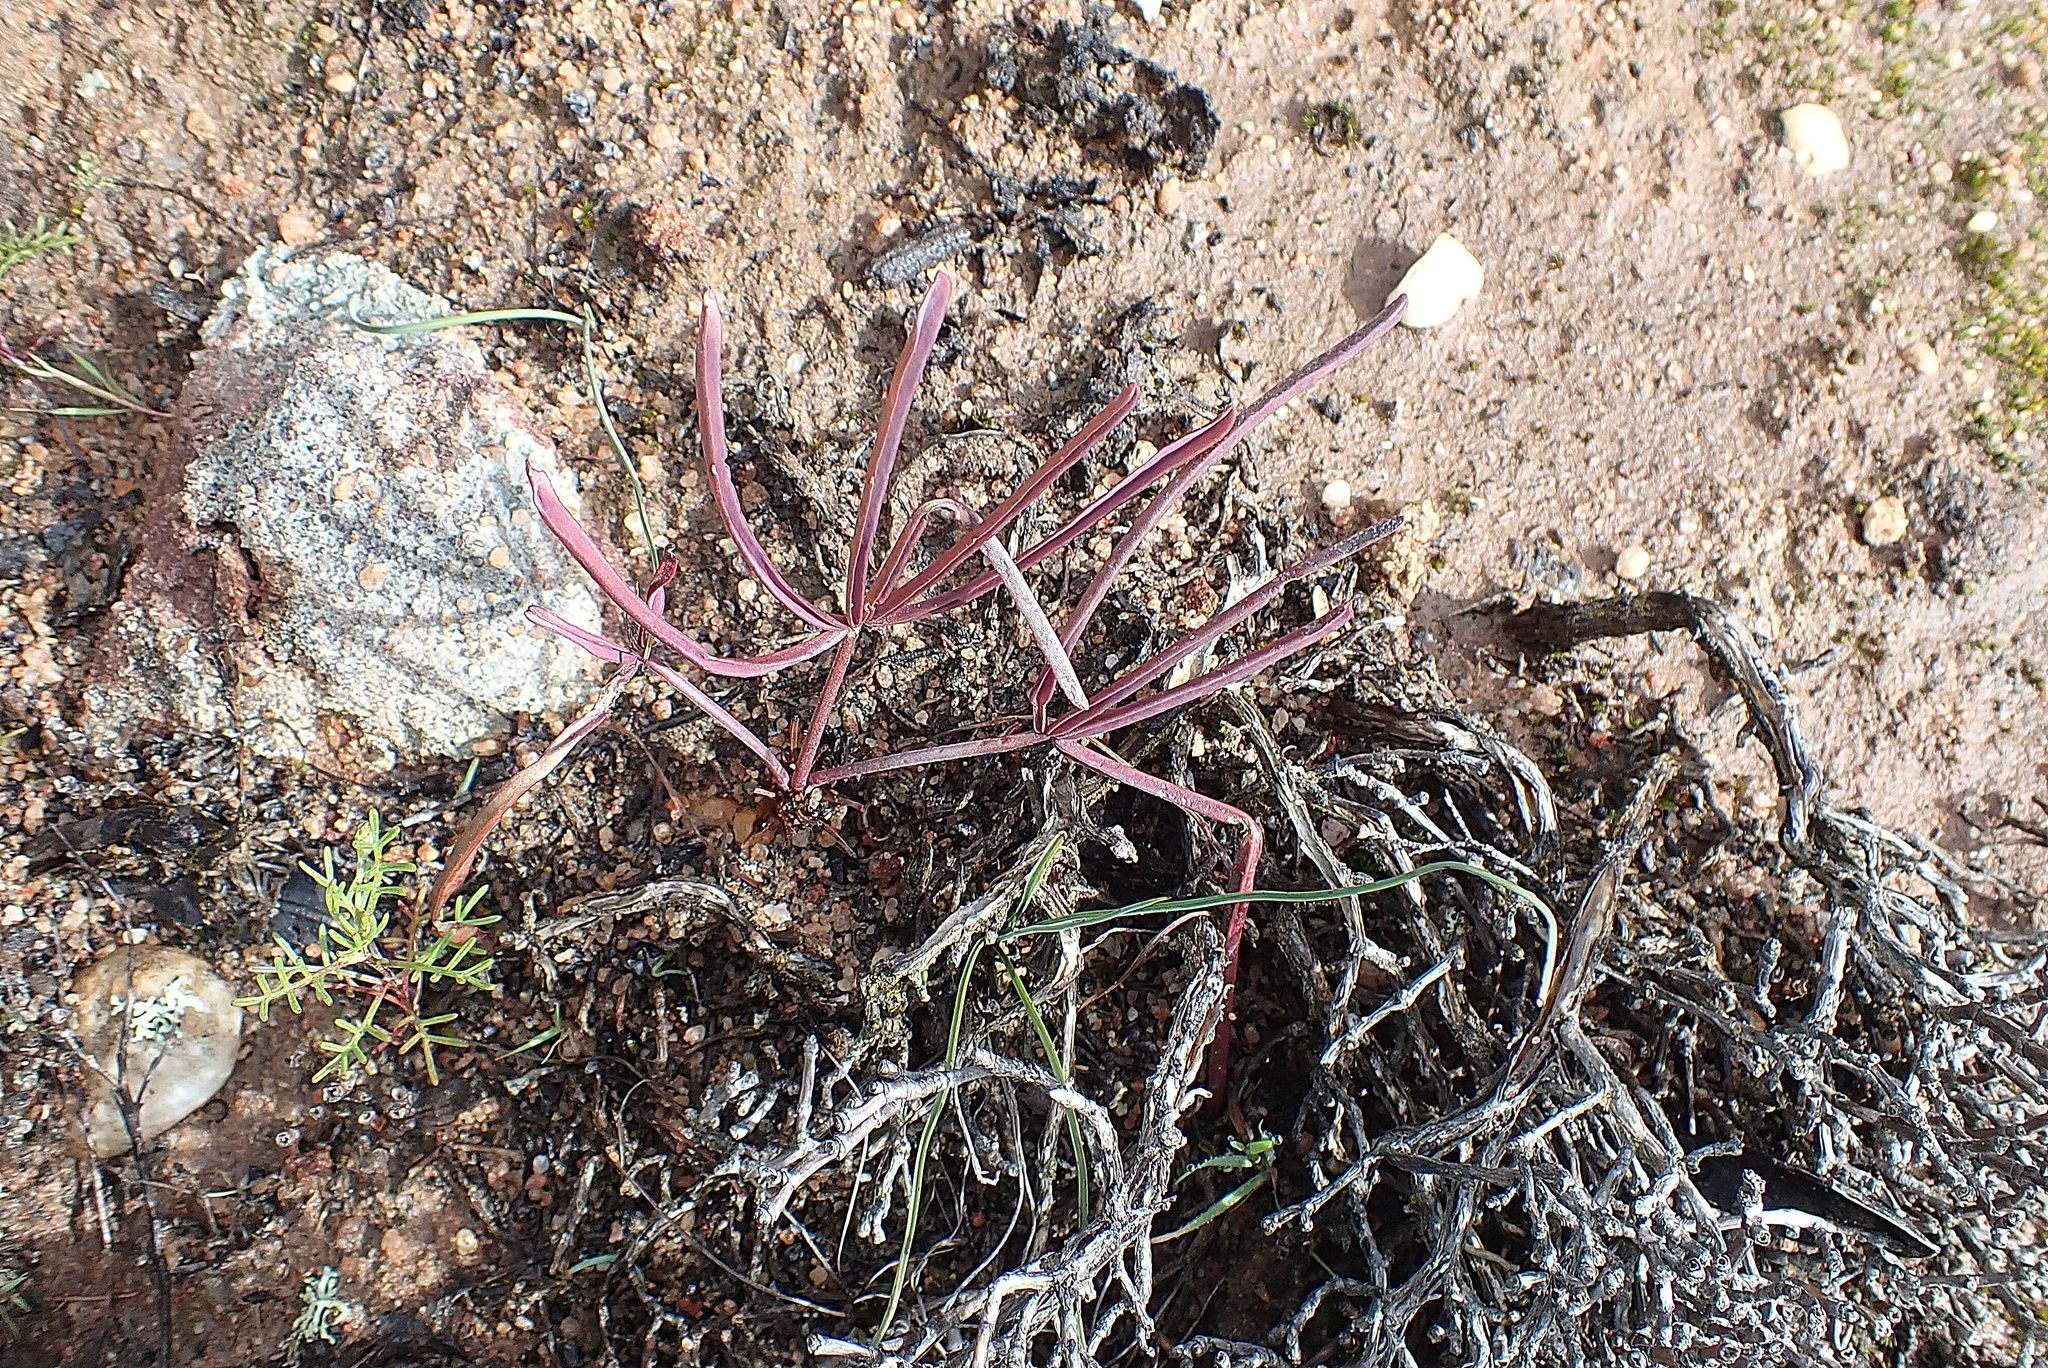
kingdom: Plantae
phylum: Tracheophyta
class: Magnoliopsida
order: Oxalidales
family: Oxalidaceae
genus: Oxalis
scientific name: Oxalis flava
